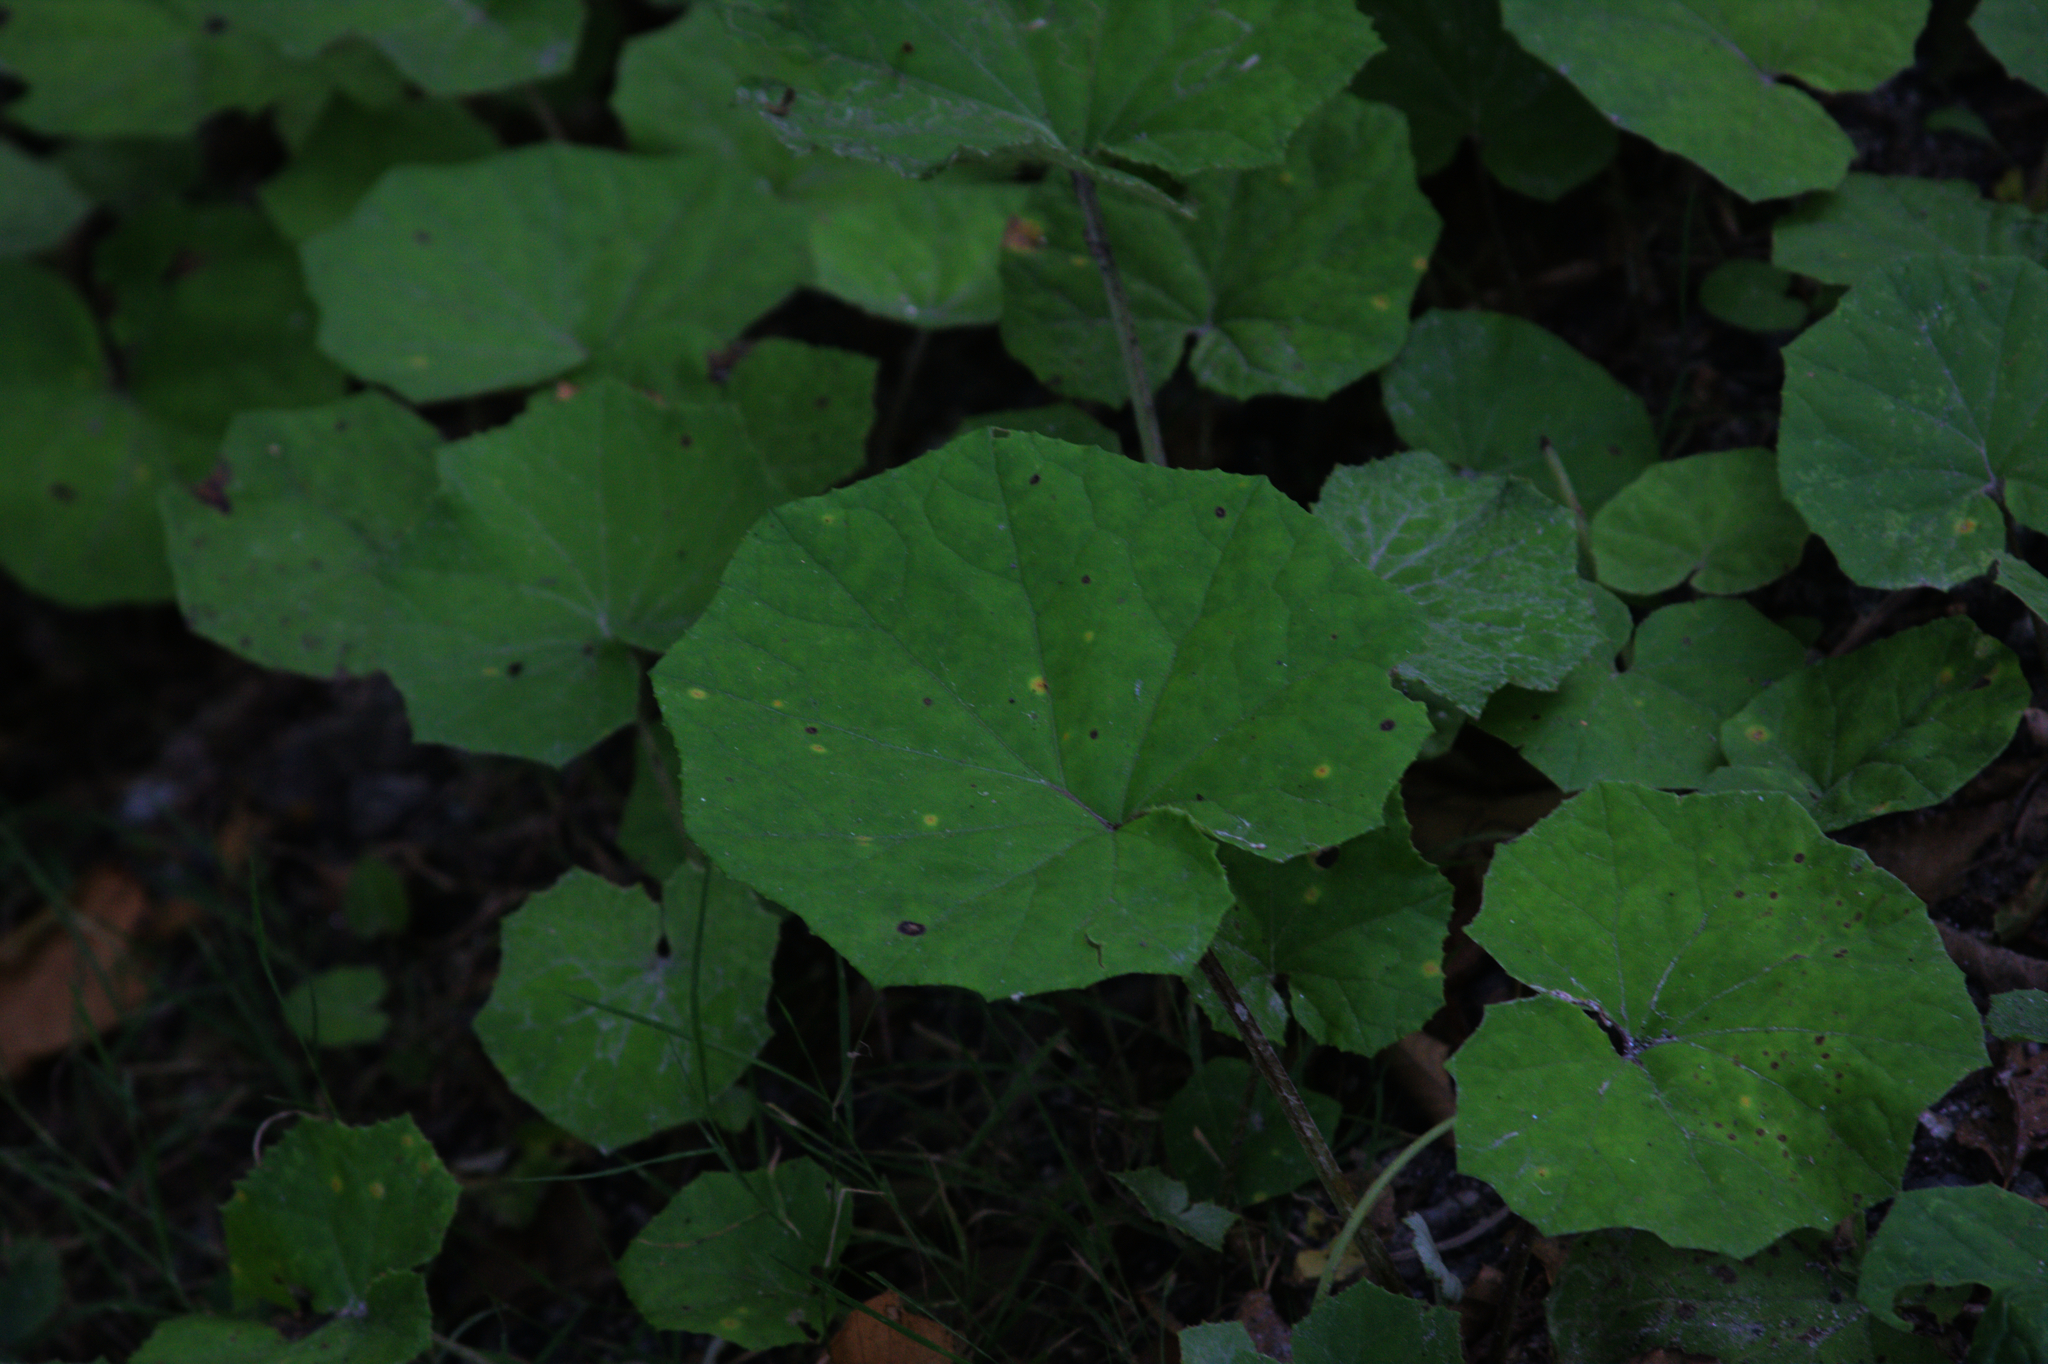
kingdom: Plantae
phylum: Tracheophyta
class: Magnoliopsida
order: Asterales
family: Asteraceae
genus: Tussilago
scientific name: Tussilago farfara
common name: Coltsfoot
